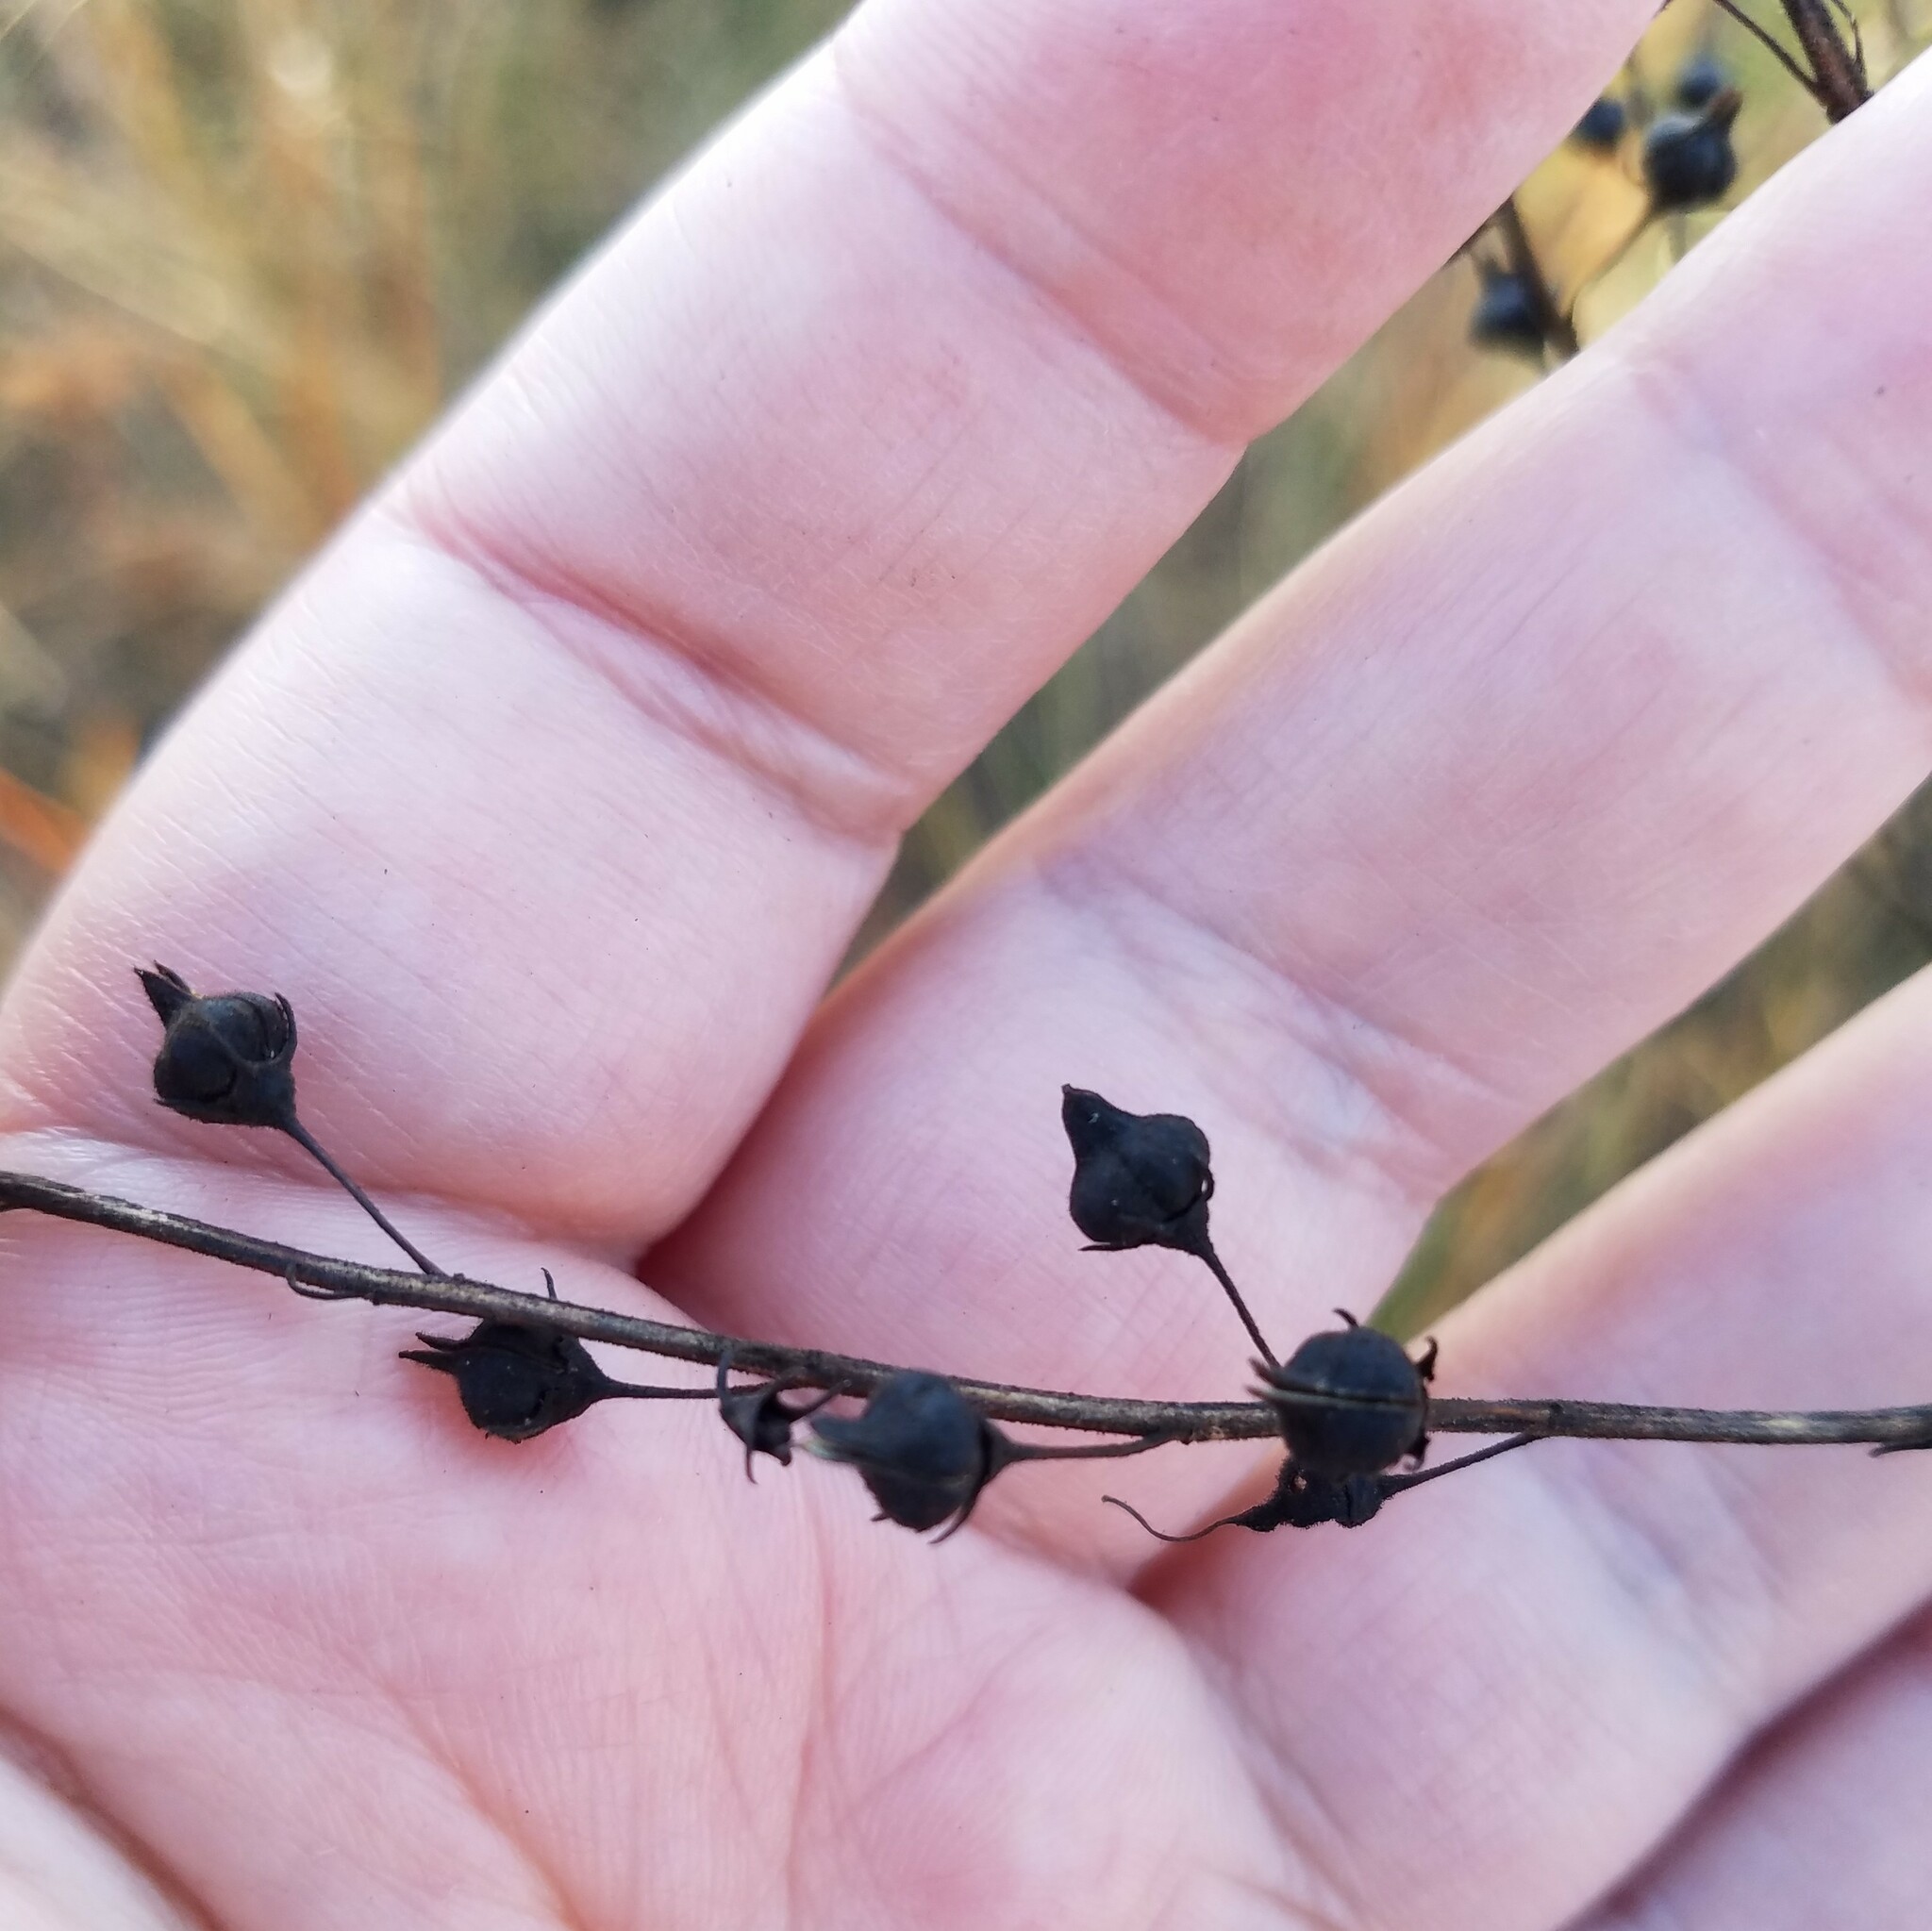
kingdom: Plantae
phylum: Tracheophyta
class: Magnoliopsida
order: Lamiales
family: Orobanchaceae
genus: Seymeria
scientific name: Seymeria cassioides
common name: Yaupon black-senna
